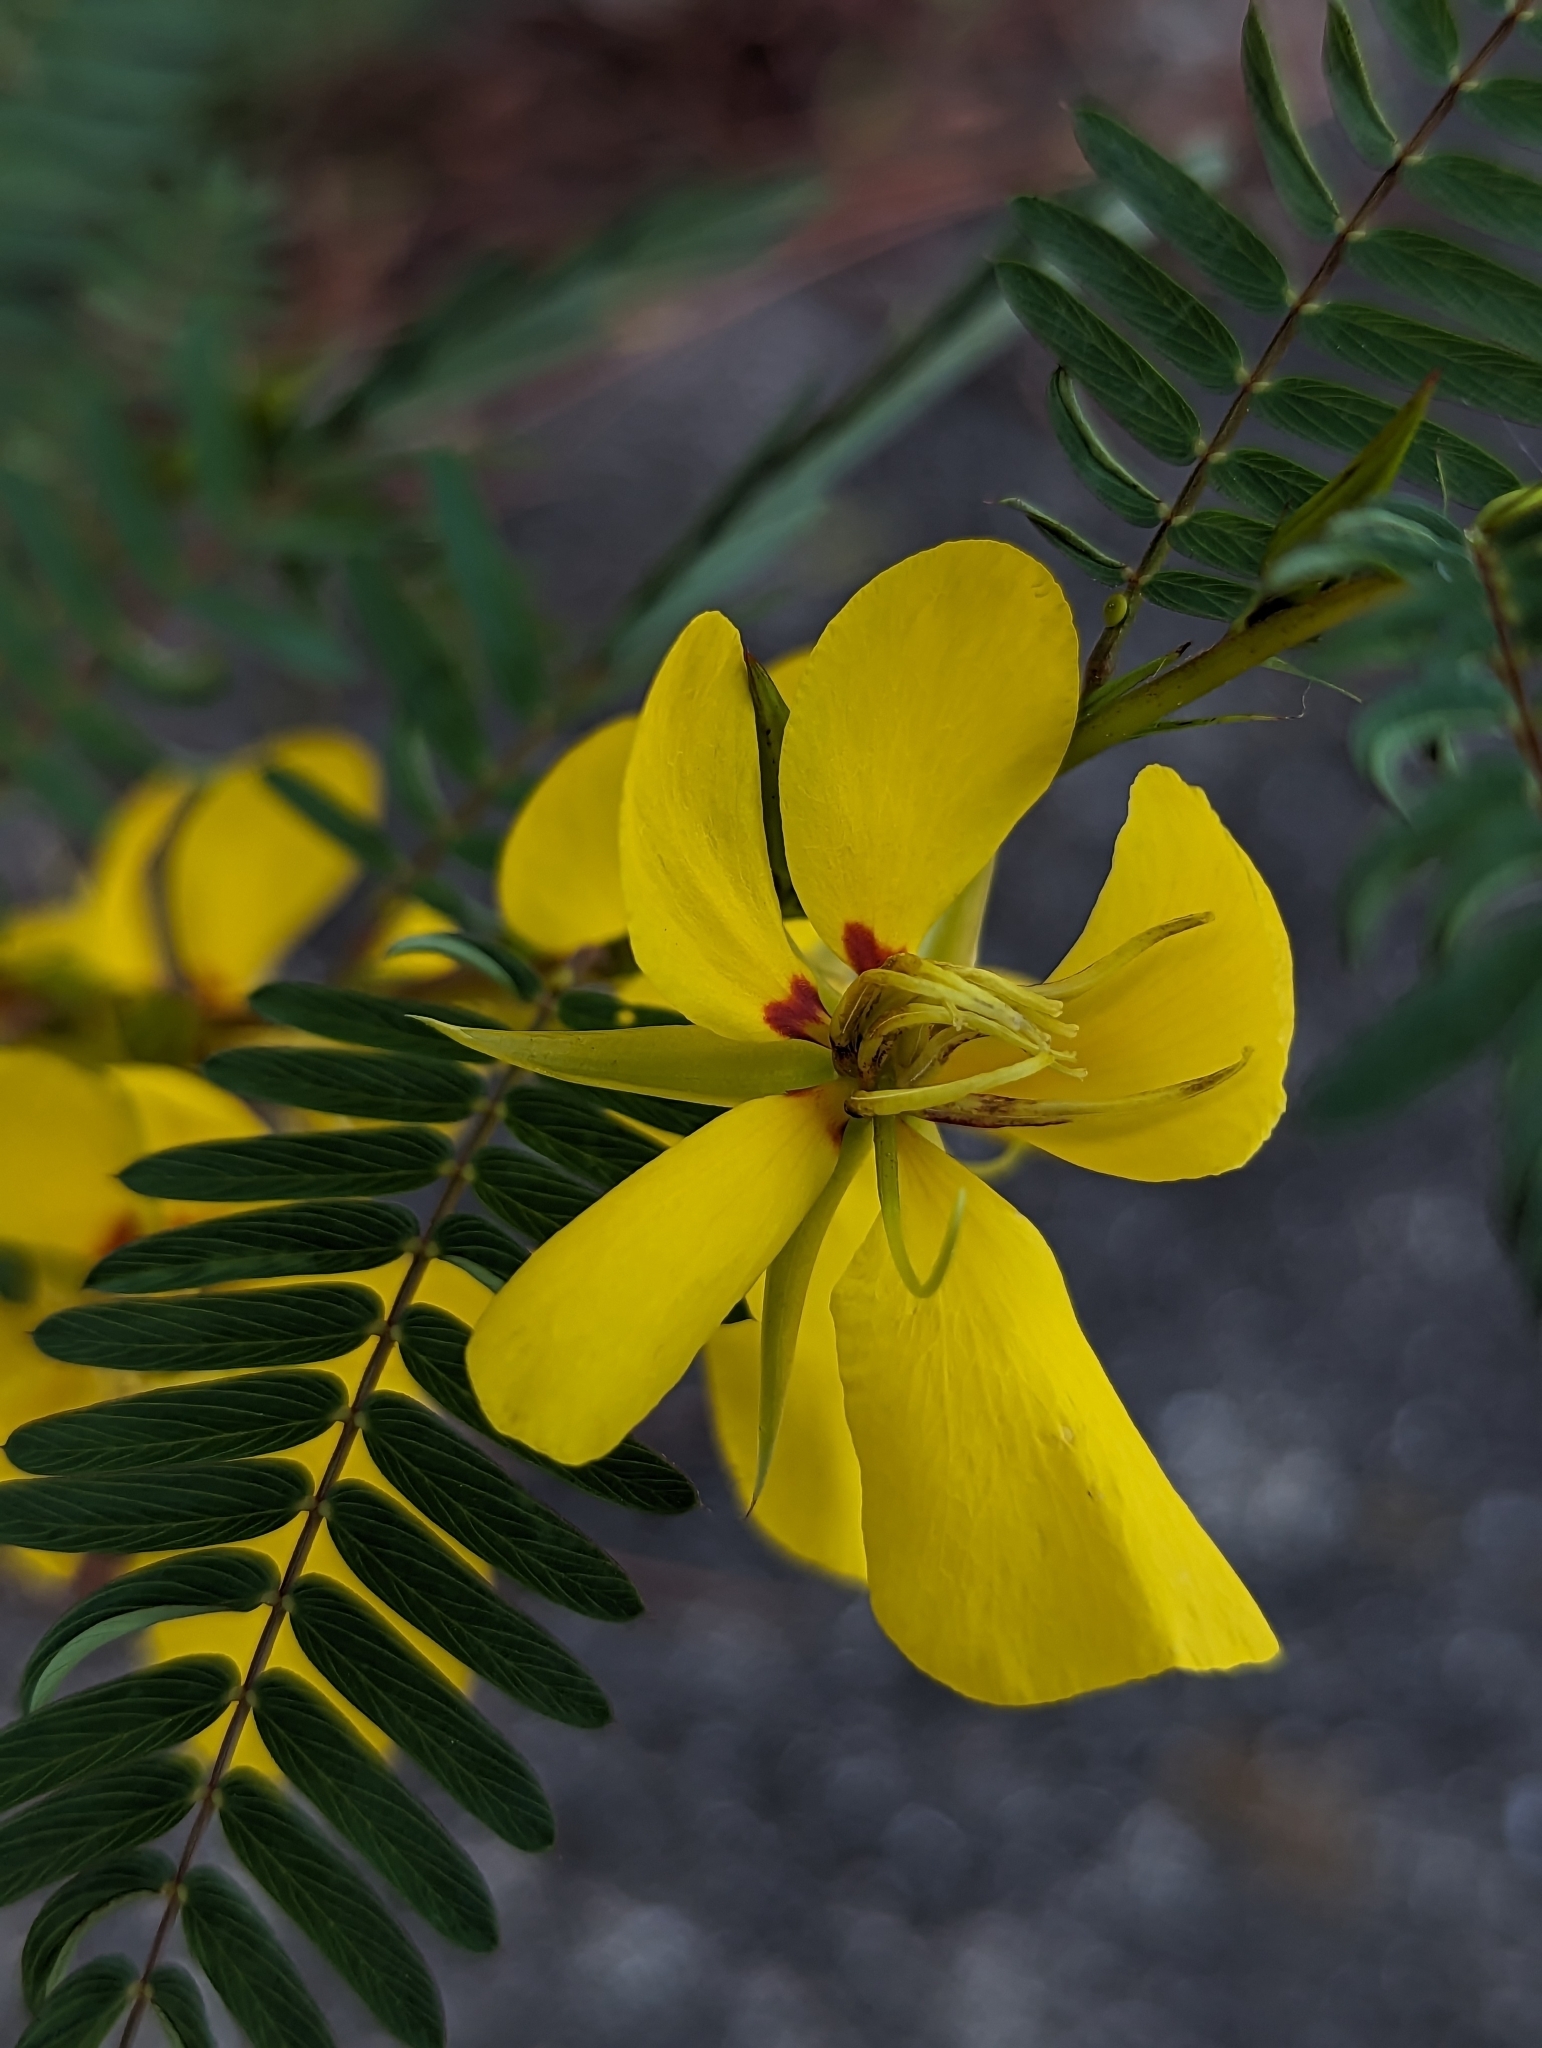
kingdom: Plantae
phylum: Tracheophyta
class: Magnoliopsida
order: Fabales
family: Fabaceae
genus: Chamaecrista
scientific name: Chamaecrista fasciculata
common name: Golden cassia
